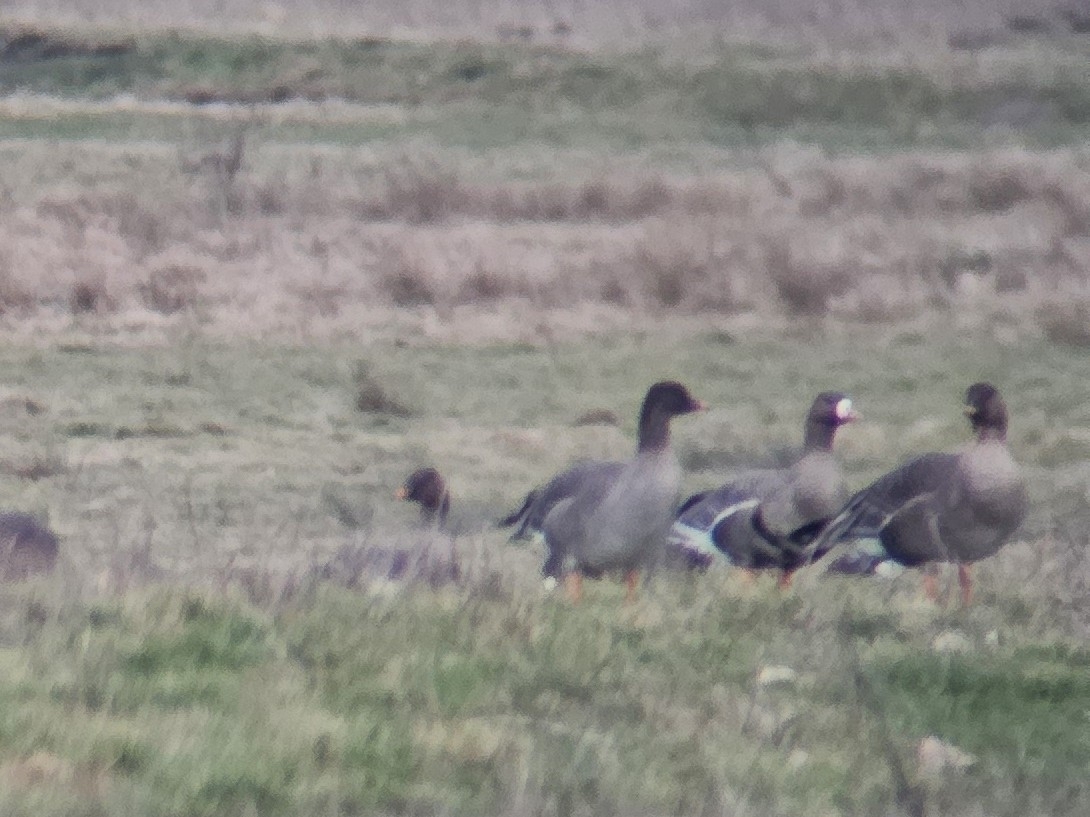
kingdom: Animalia
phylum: Chordata
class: Aves
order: Anseriformes
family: Anatidae
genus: Anser
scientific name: Anser albifrons
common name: Greater white-fronted goose
